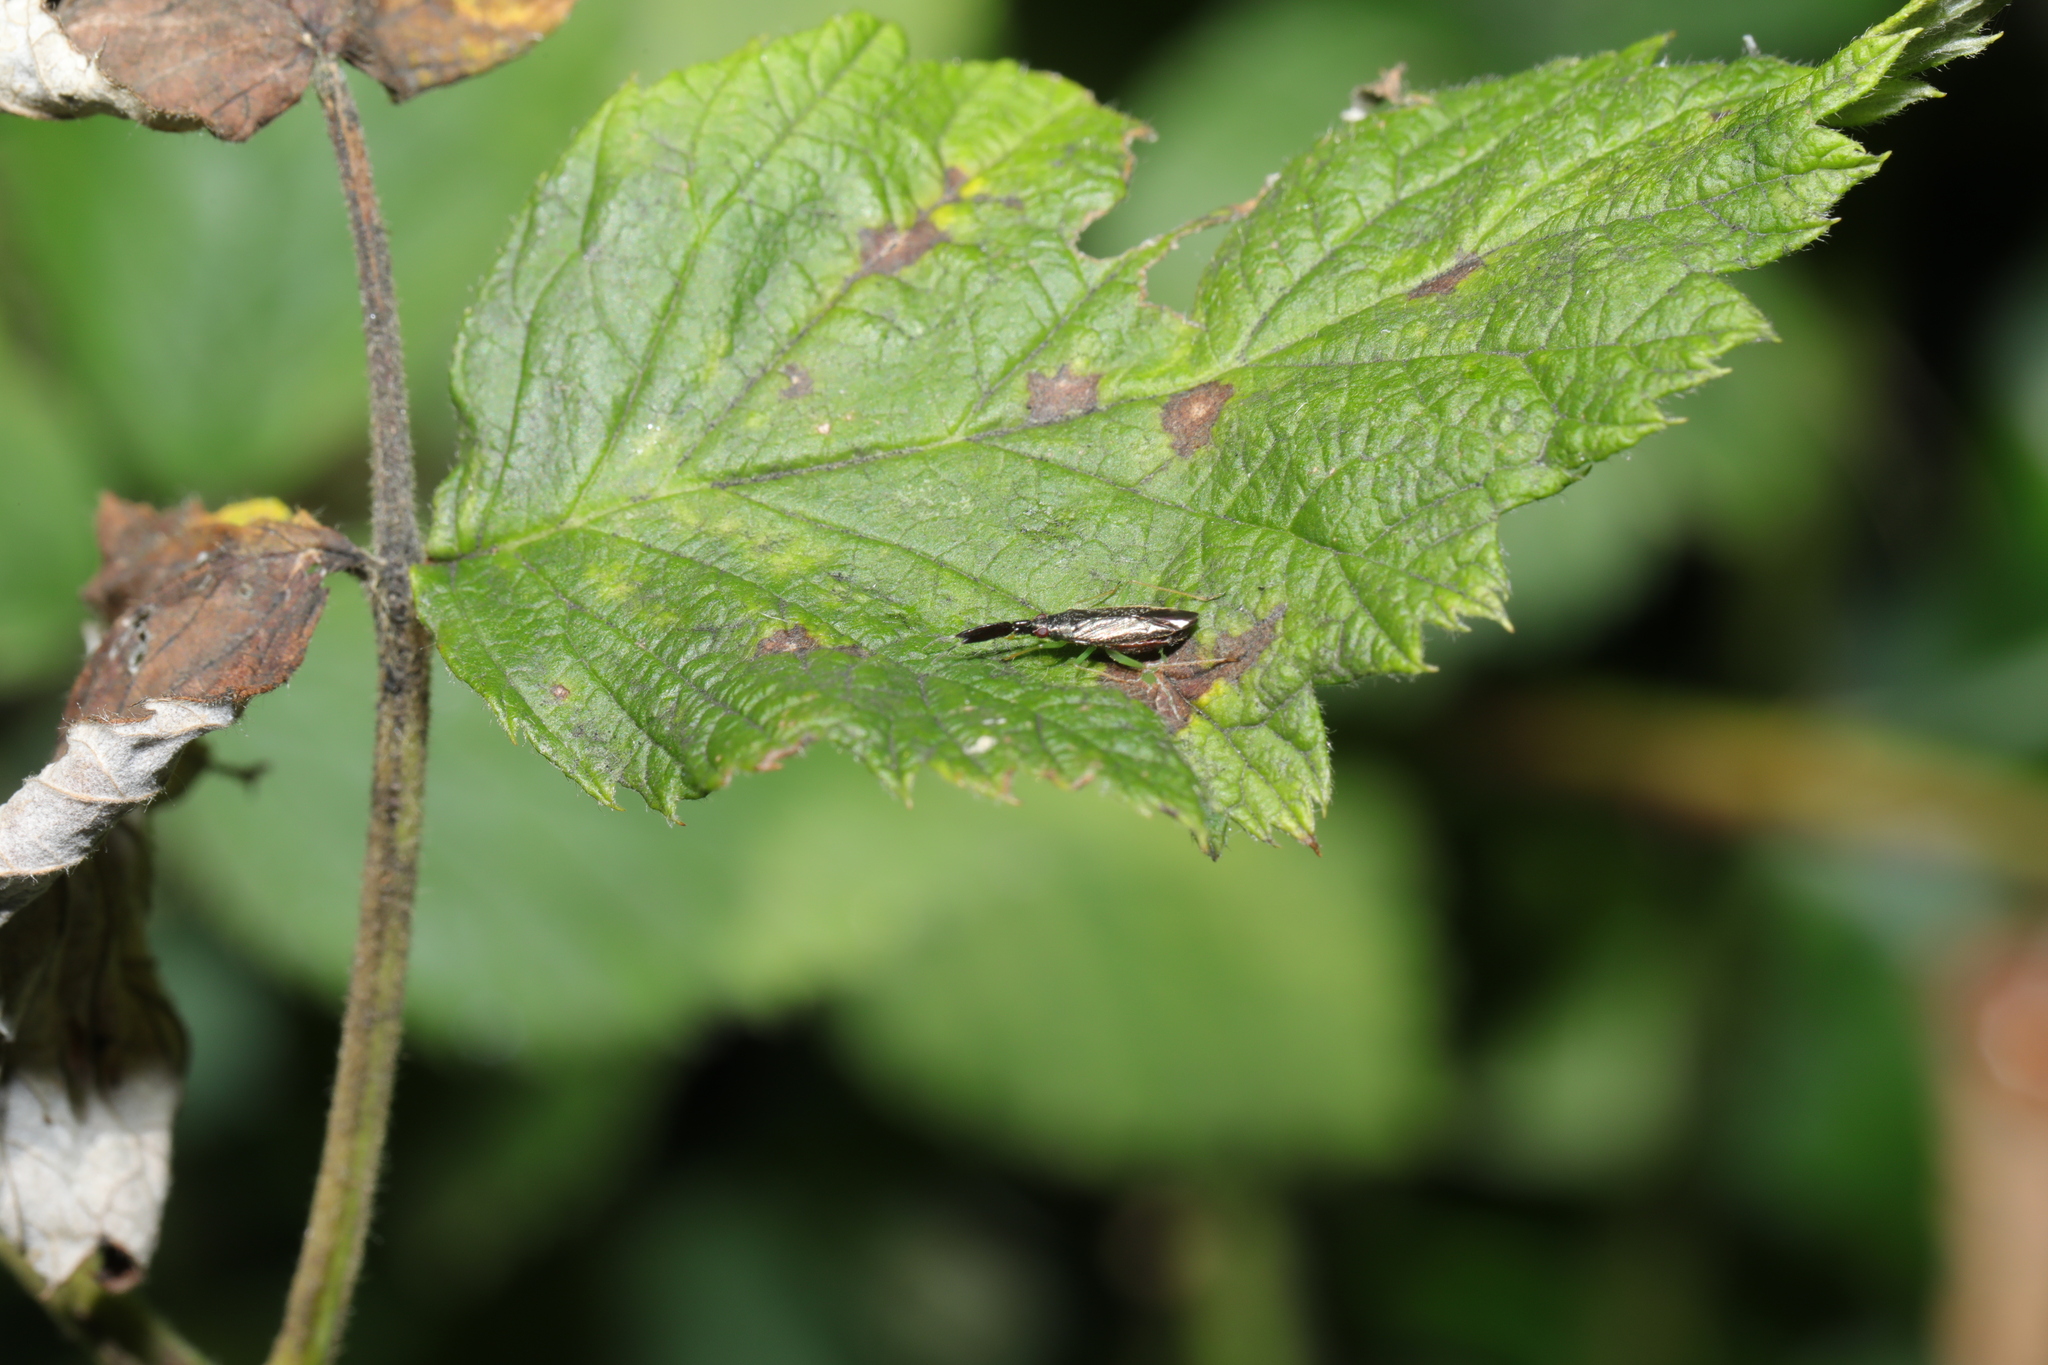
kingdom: Animalia
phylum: Arthropoda
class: Insecta
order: Hemiptera
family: Miridae
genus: Heterotoma
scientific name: Heterotoma planicornis
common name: Plant bug
